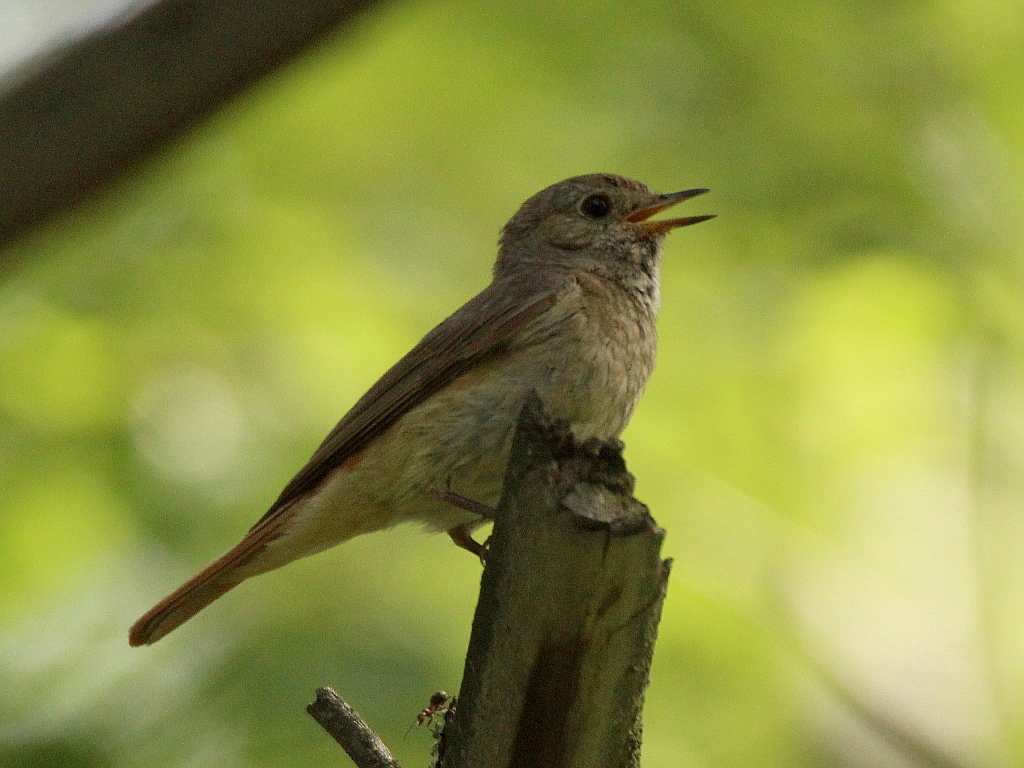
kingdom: Animalia
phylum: Chordata
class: Aves
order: Passeriformes
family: Muscicapidae
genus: Phoenicurus
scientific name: Phoenicurus phoenicurus
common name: Common redstart
